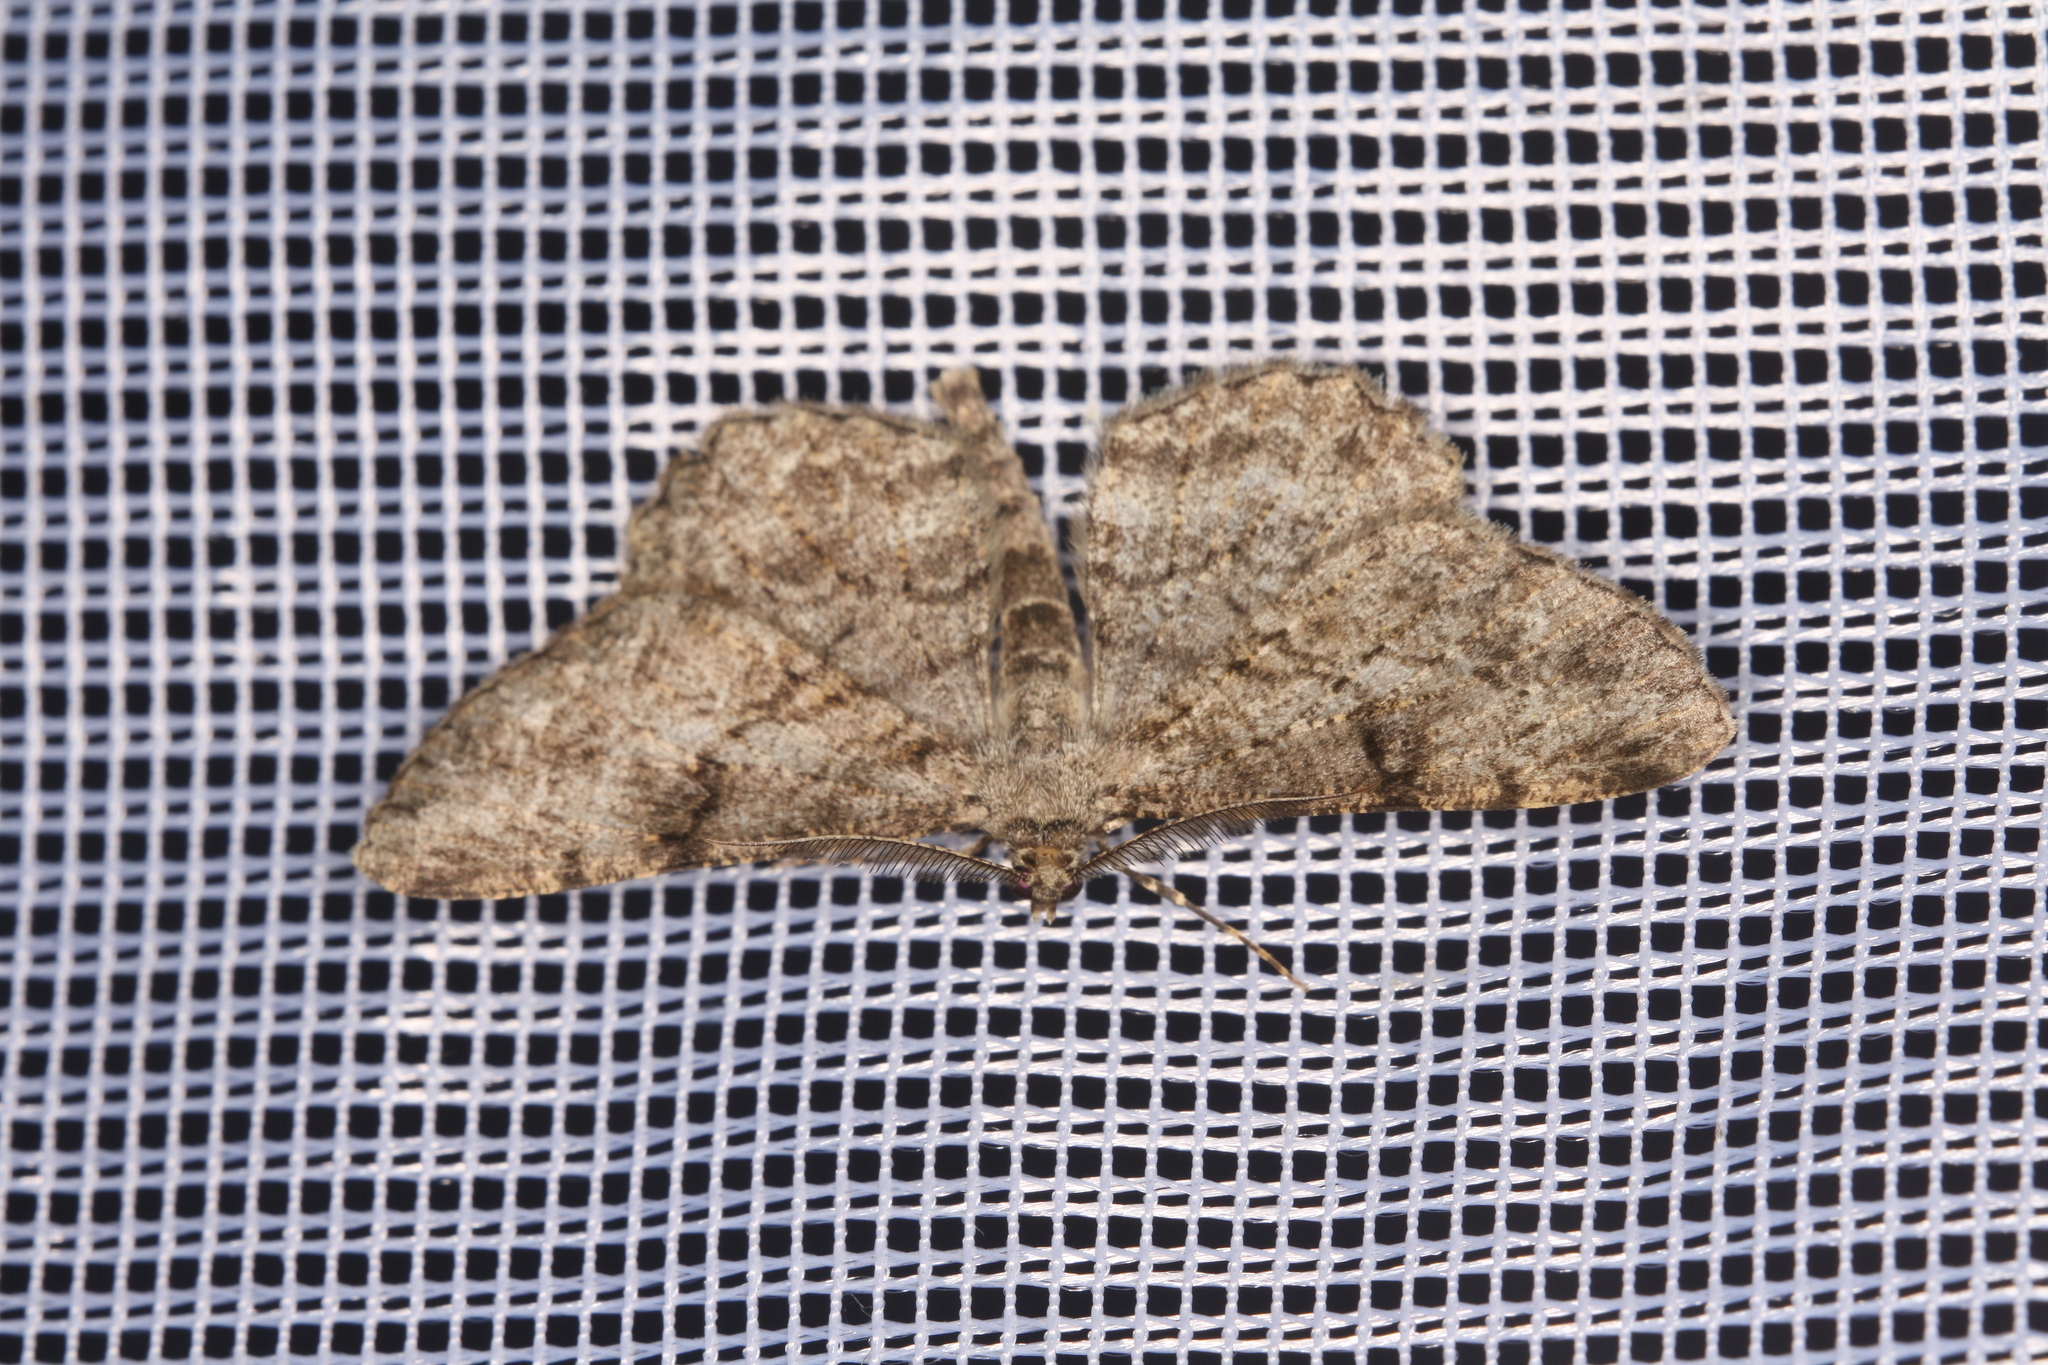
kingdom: Animalia
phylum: Arthropoda
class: Insecta
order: Lepidoptera
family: Geometridae
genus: Peribatodes
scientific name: Peribatodes rhomboidaria
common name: Willow beauty
